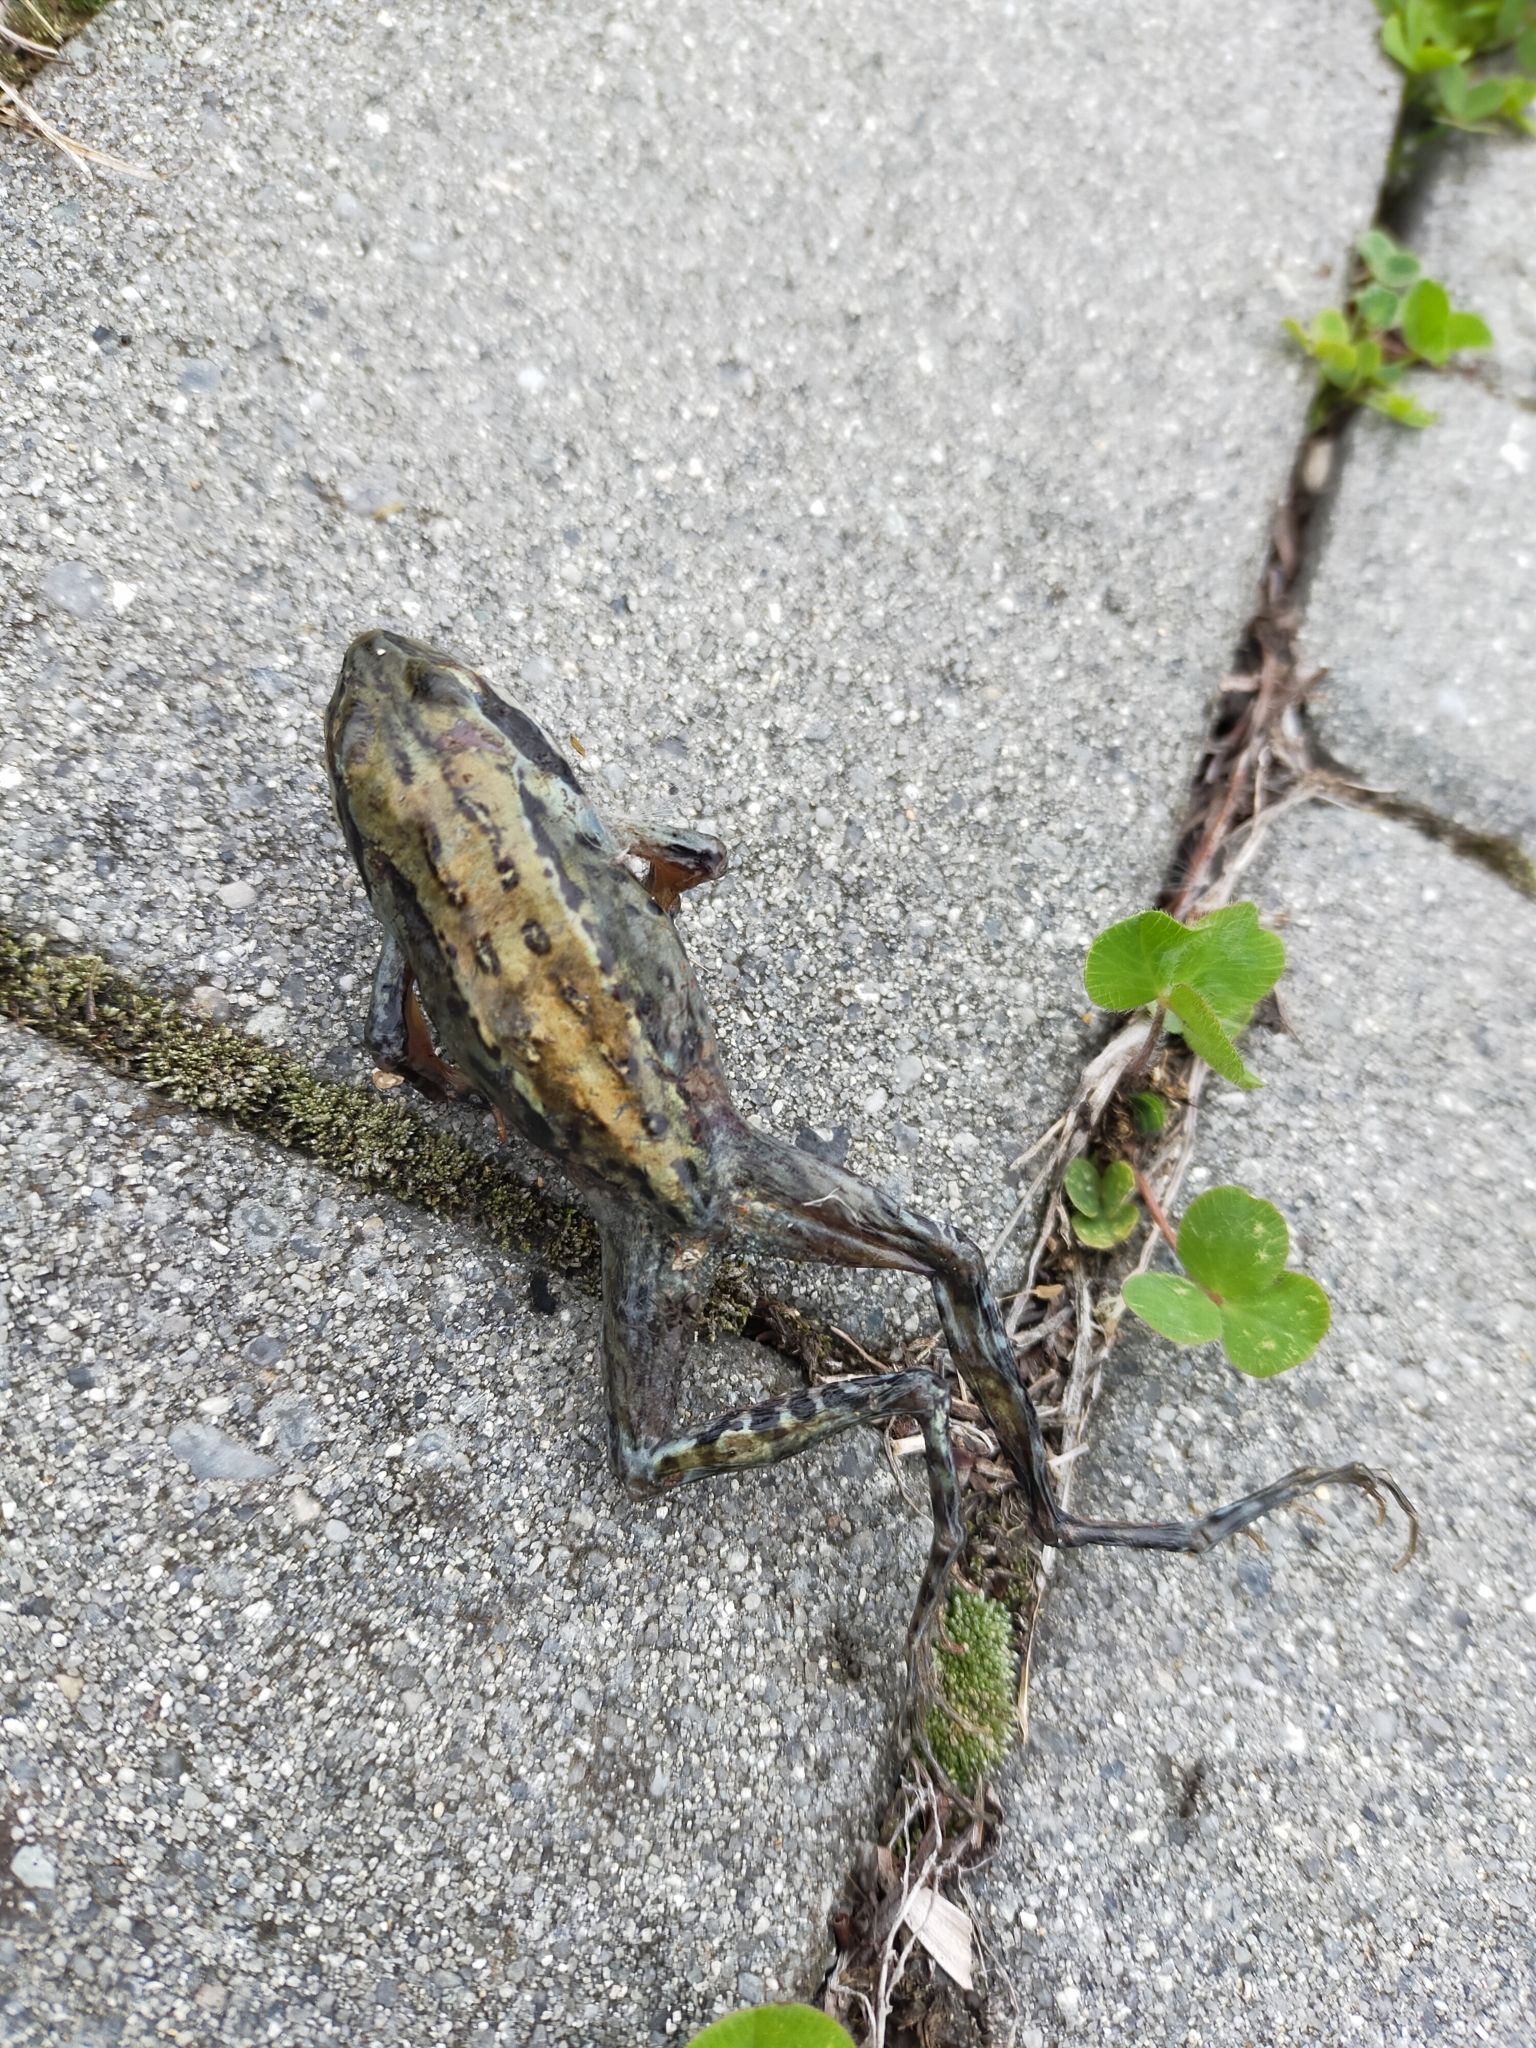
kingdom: Animalia
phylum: Chordata
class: Amphibia
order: Anura
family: Ranidae
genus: Rana
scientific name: Rana amurensis
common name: Amur brown frog
